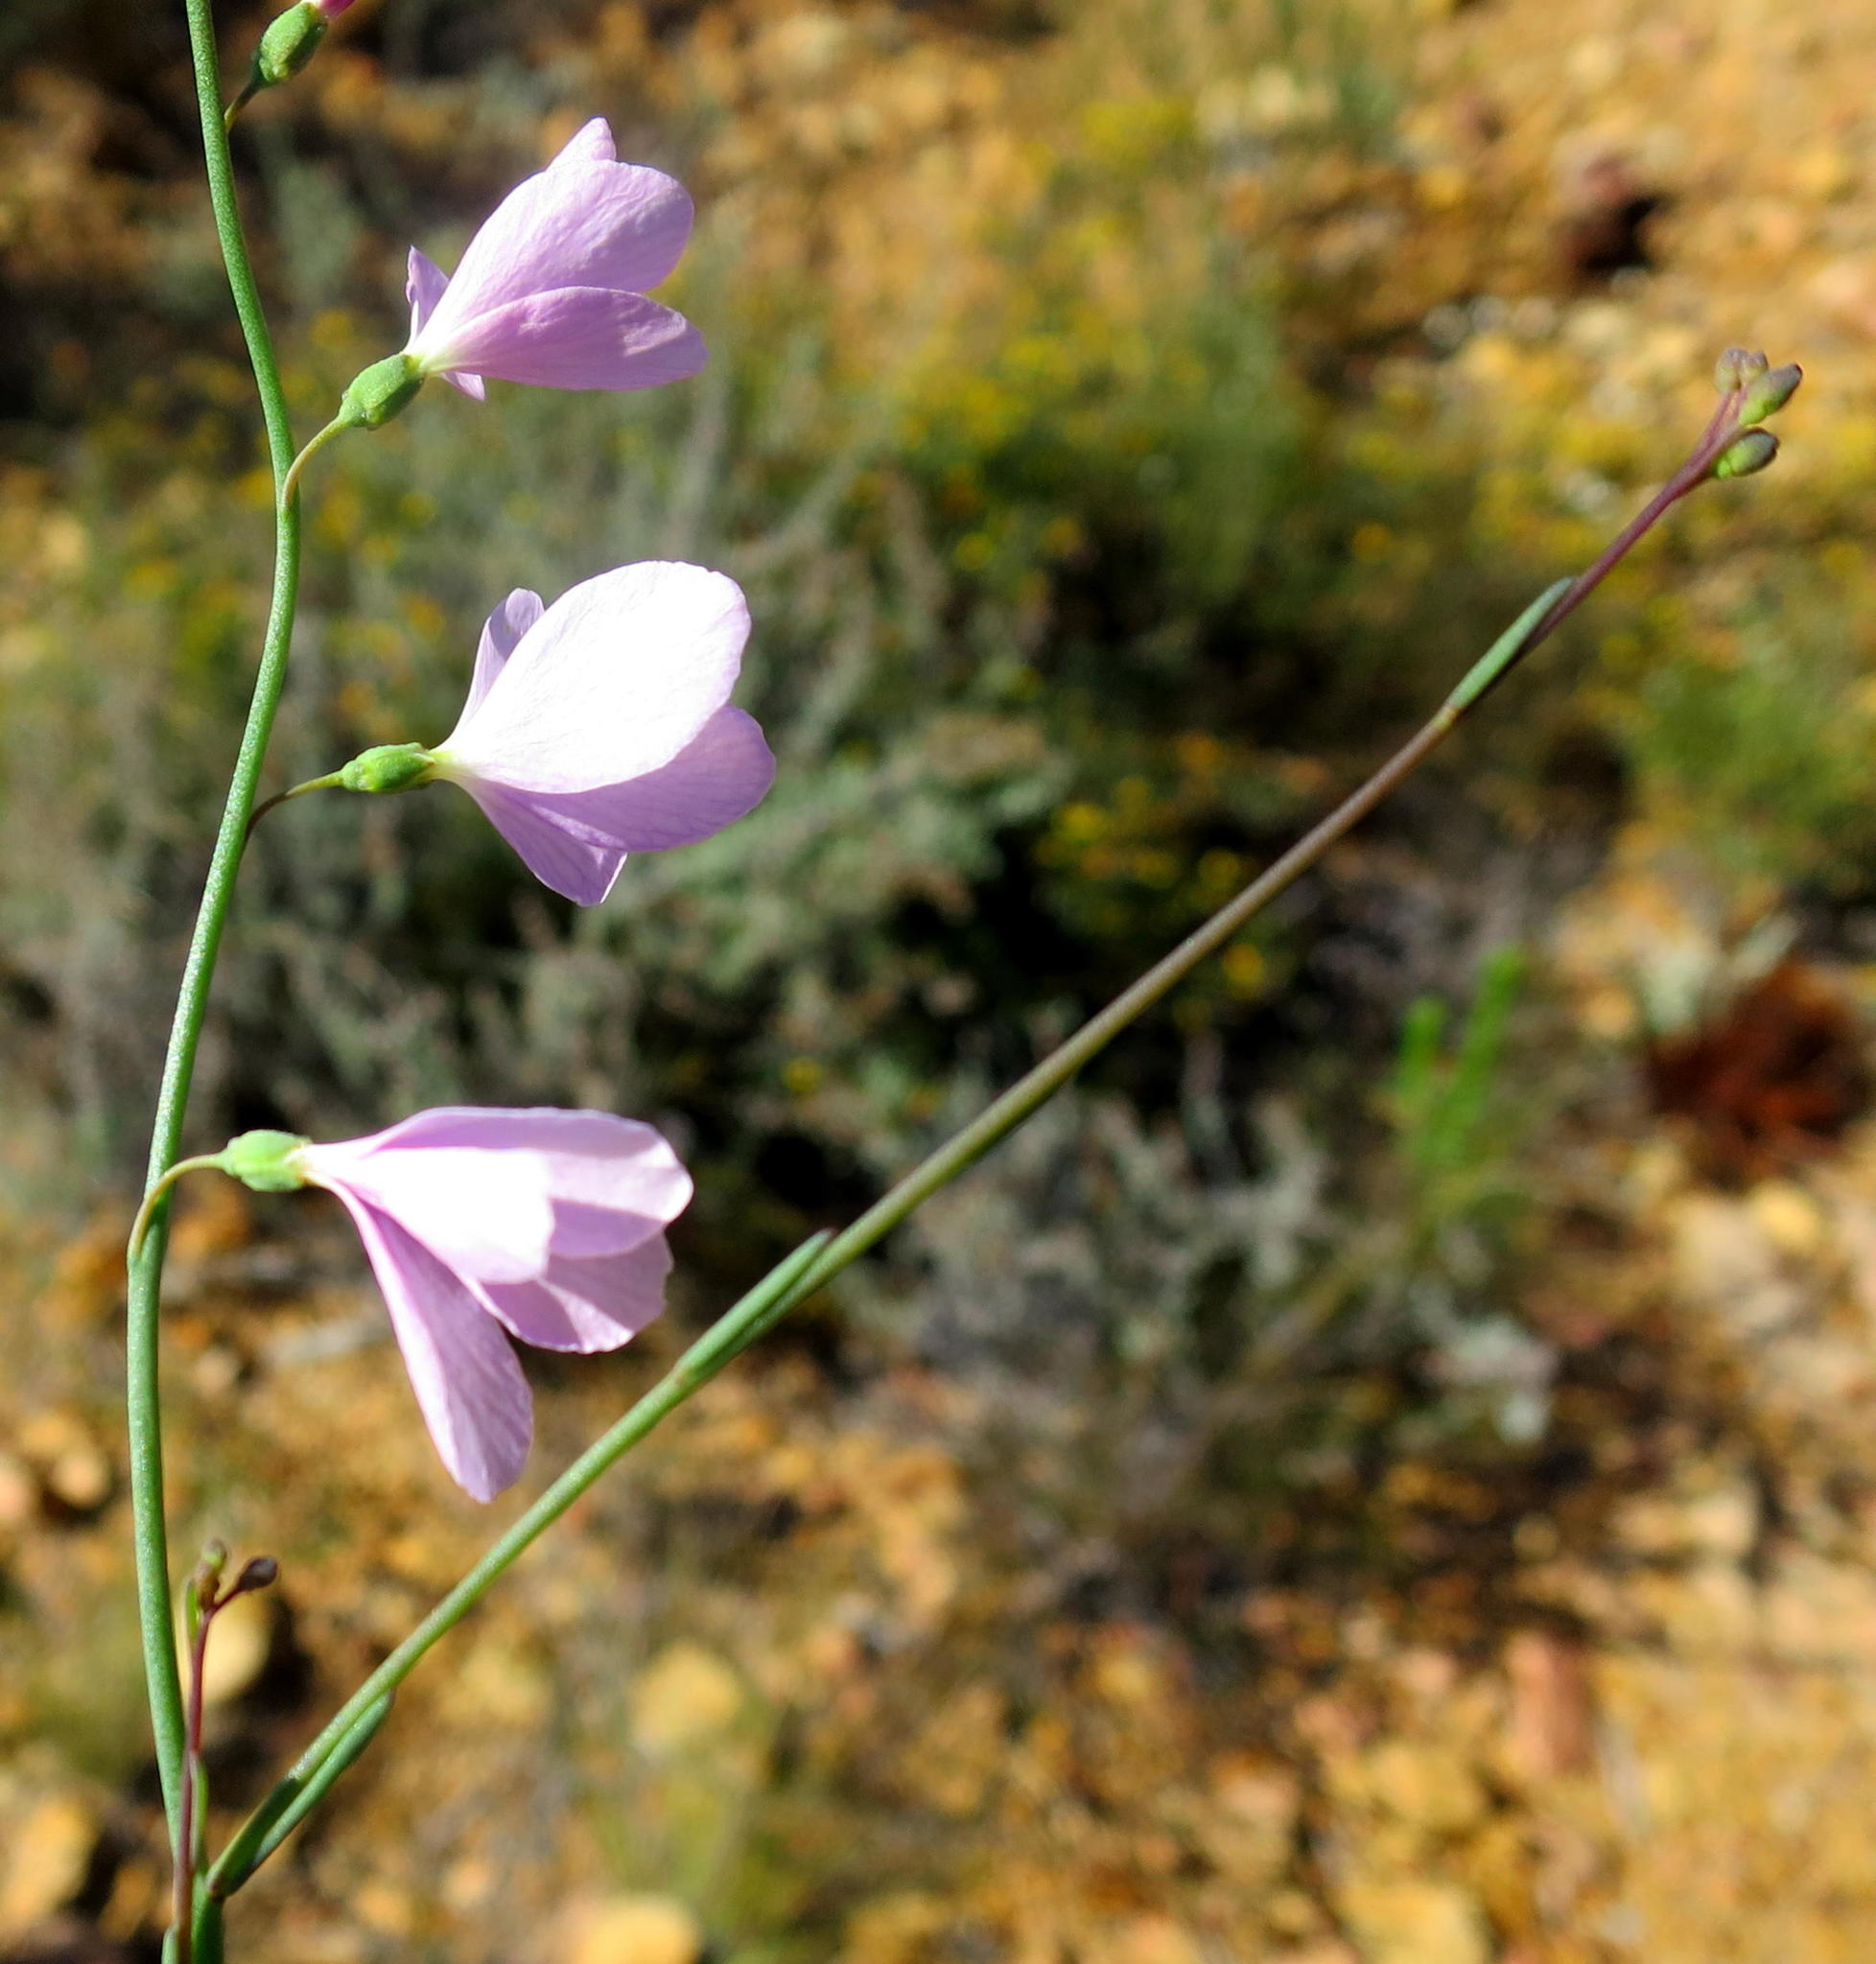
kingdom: Plantae
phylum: Tracheophyta
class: Magnoliopsida
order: Brassicales
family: Brassicaceae
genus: Heliophila
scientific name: Heliophila juncea
